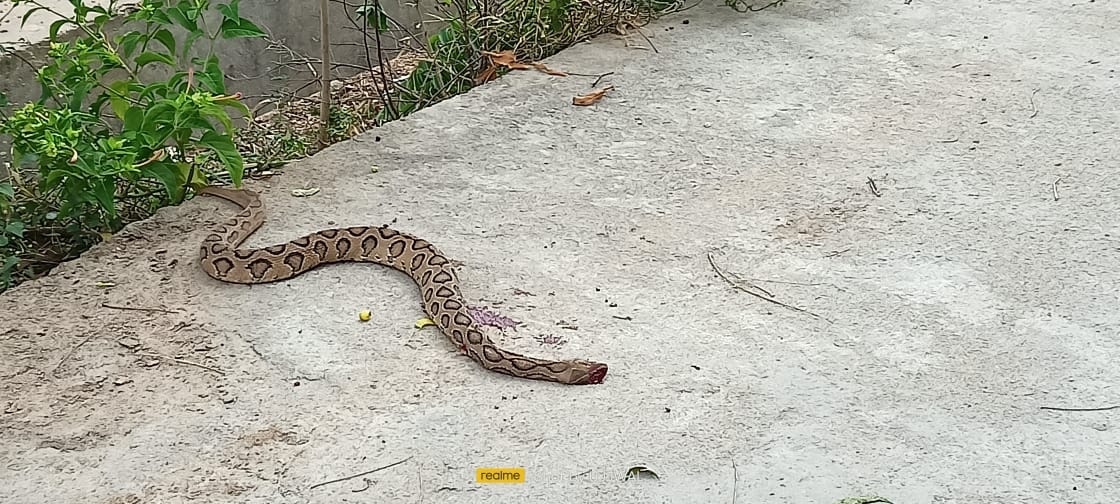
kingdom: Animalia
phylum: Chordata
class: Squamata
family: Viperidae
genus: Daboia
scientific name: Daboia russelii
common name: Western russel’s viper
